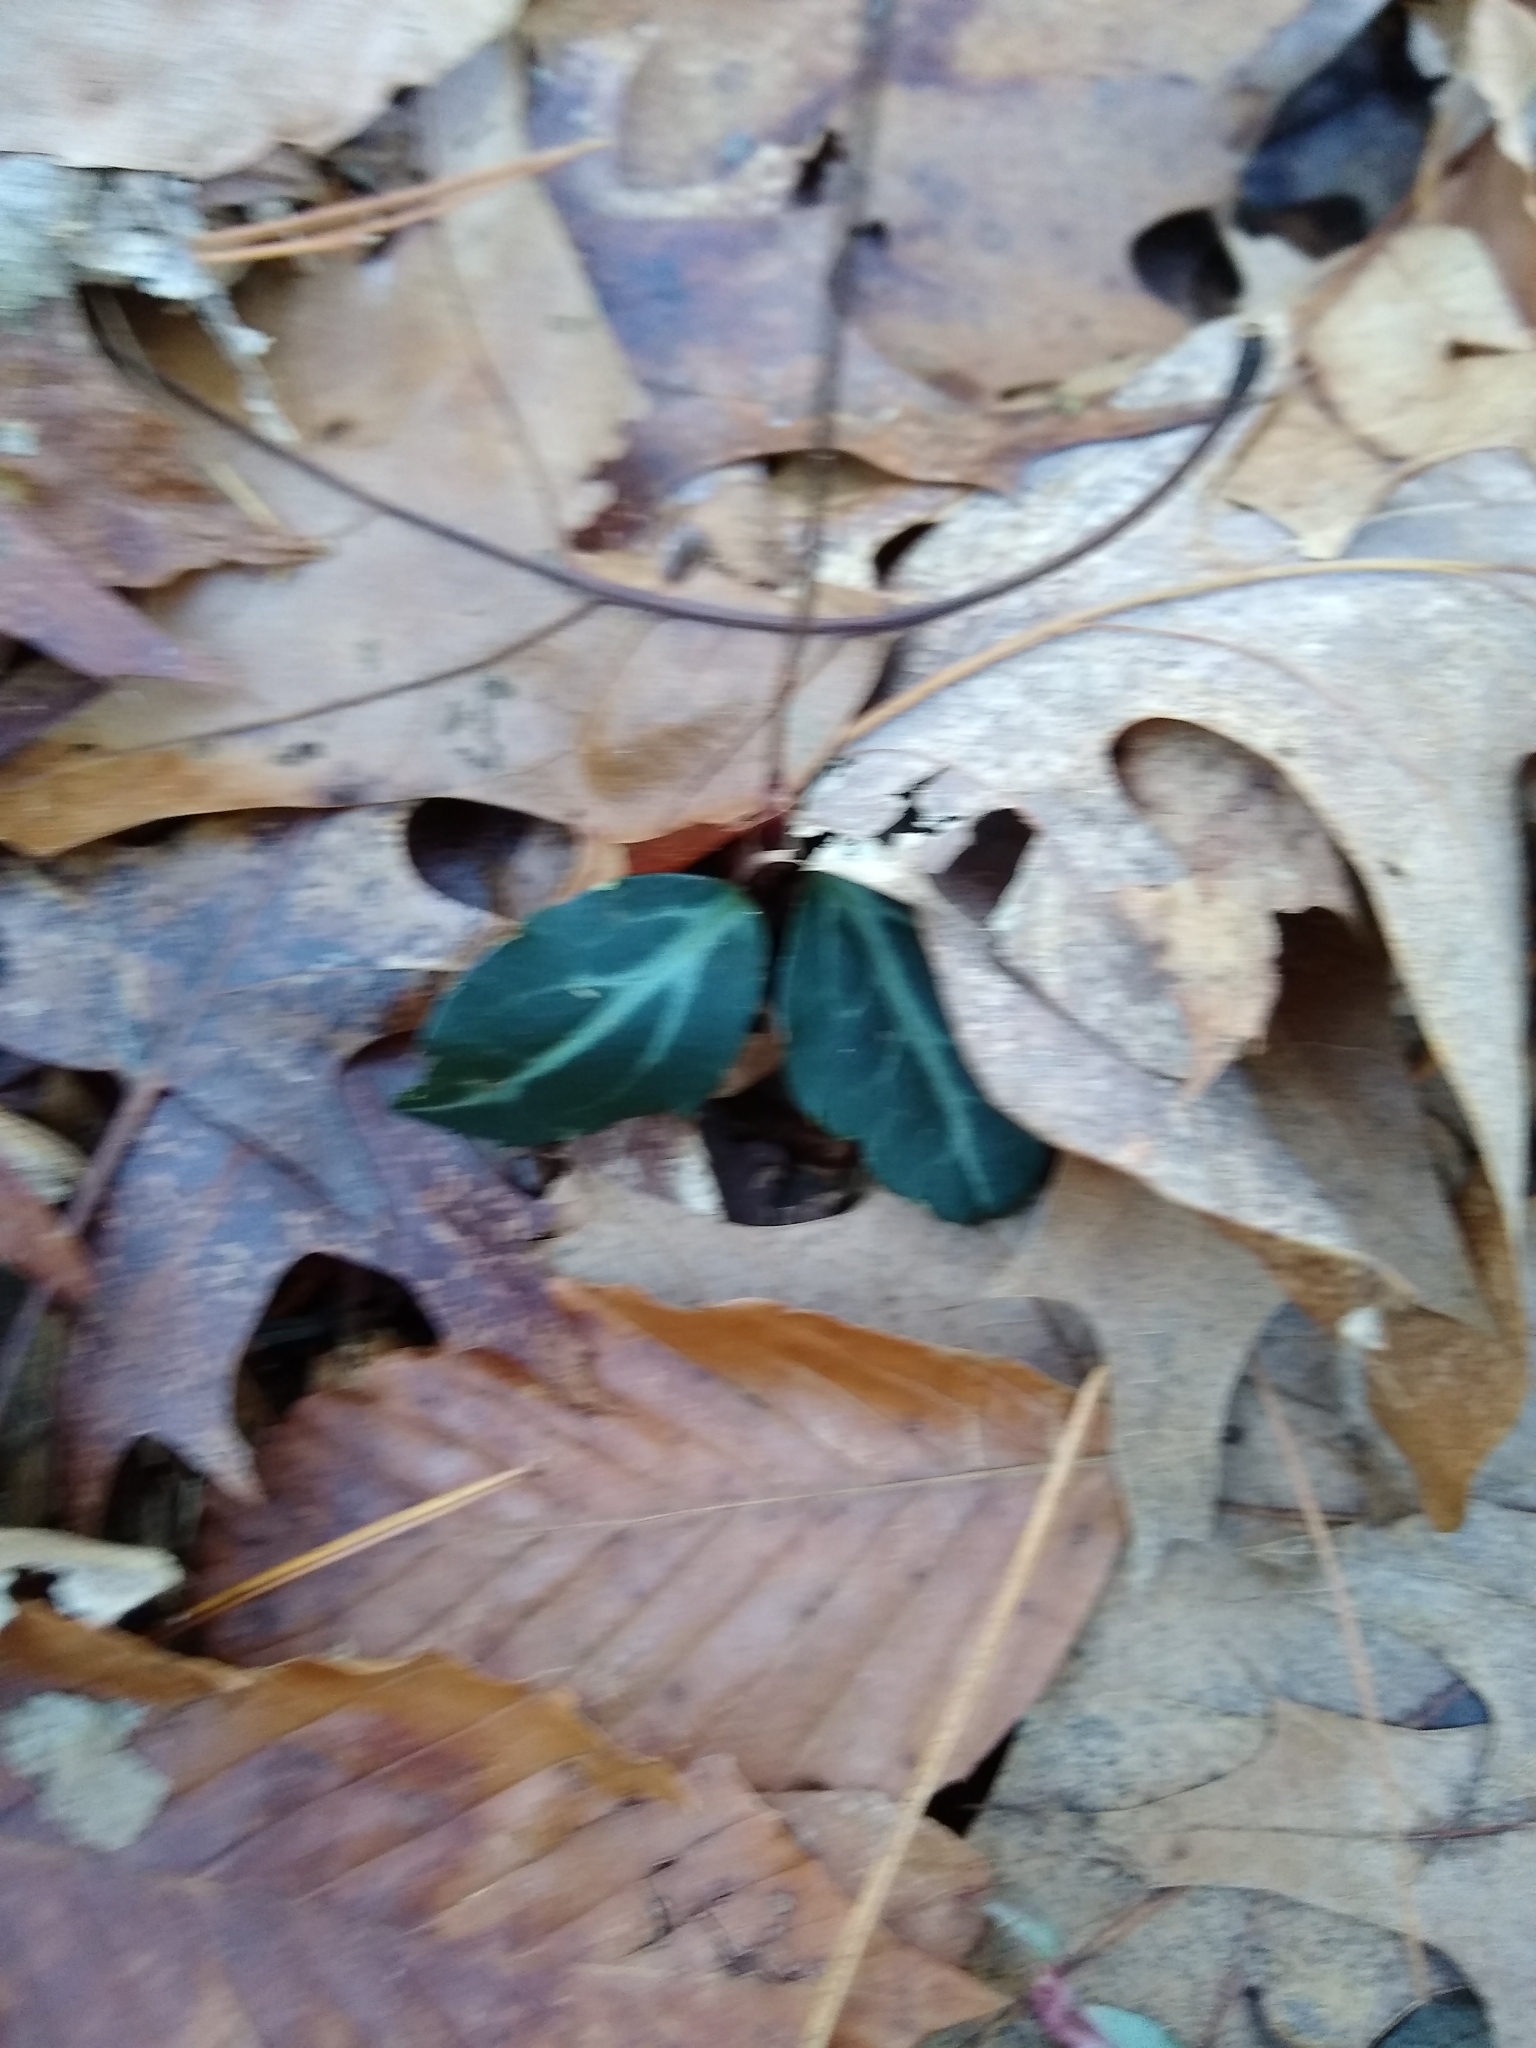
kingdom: Plantae
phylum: Tracheophyta
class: Magnoliopsida
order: Ericales
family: Ericaceae
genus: Chimaphila
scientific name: Chimaphila maculata
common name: Spotted pipsissewa
